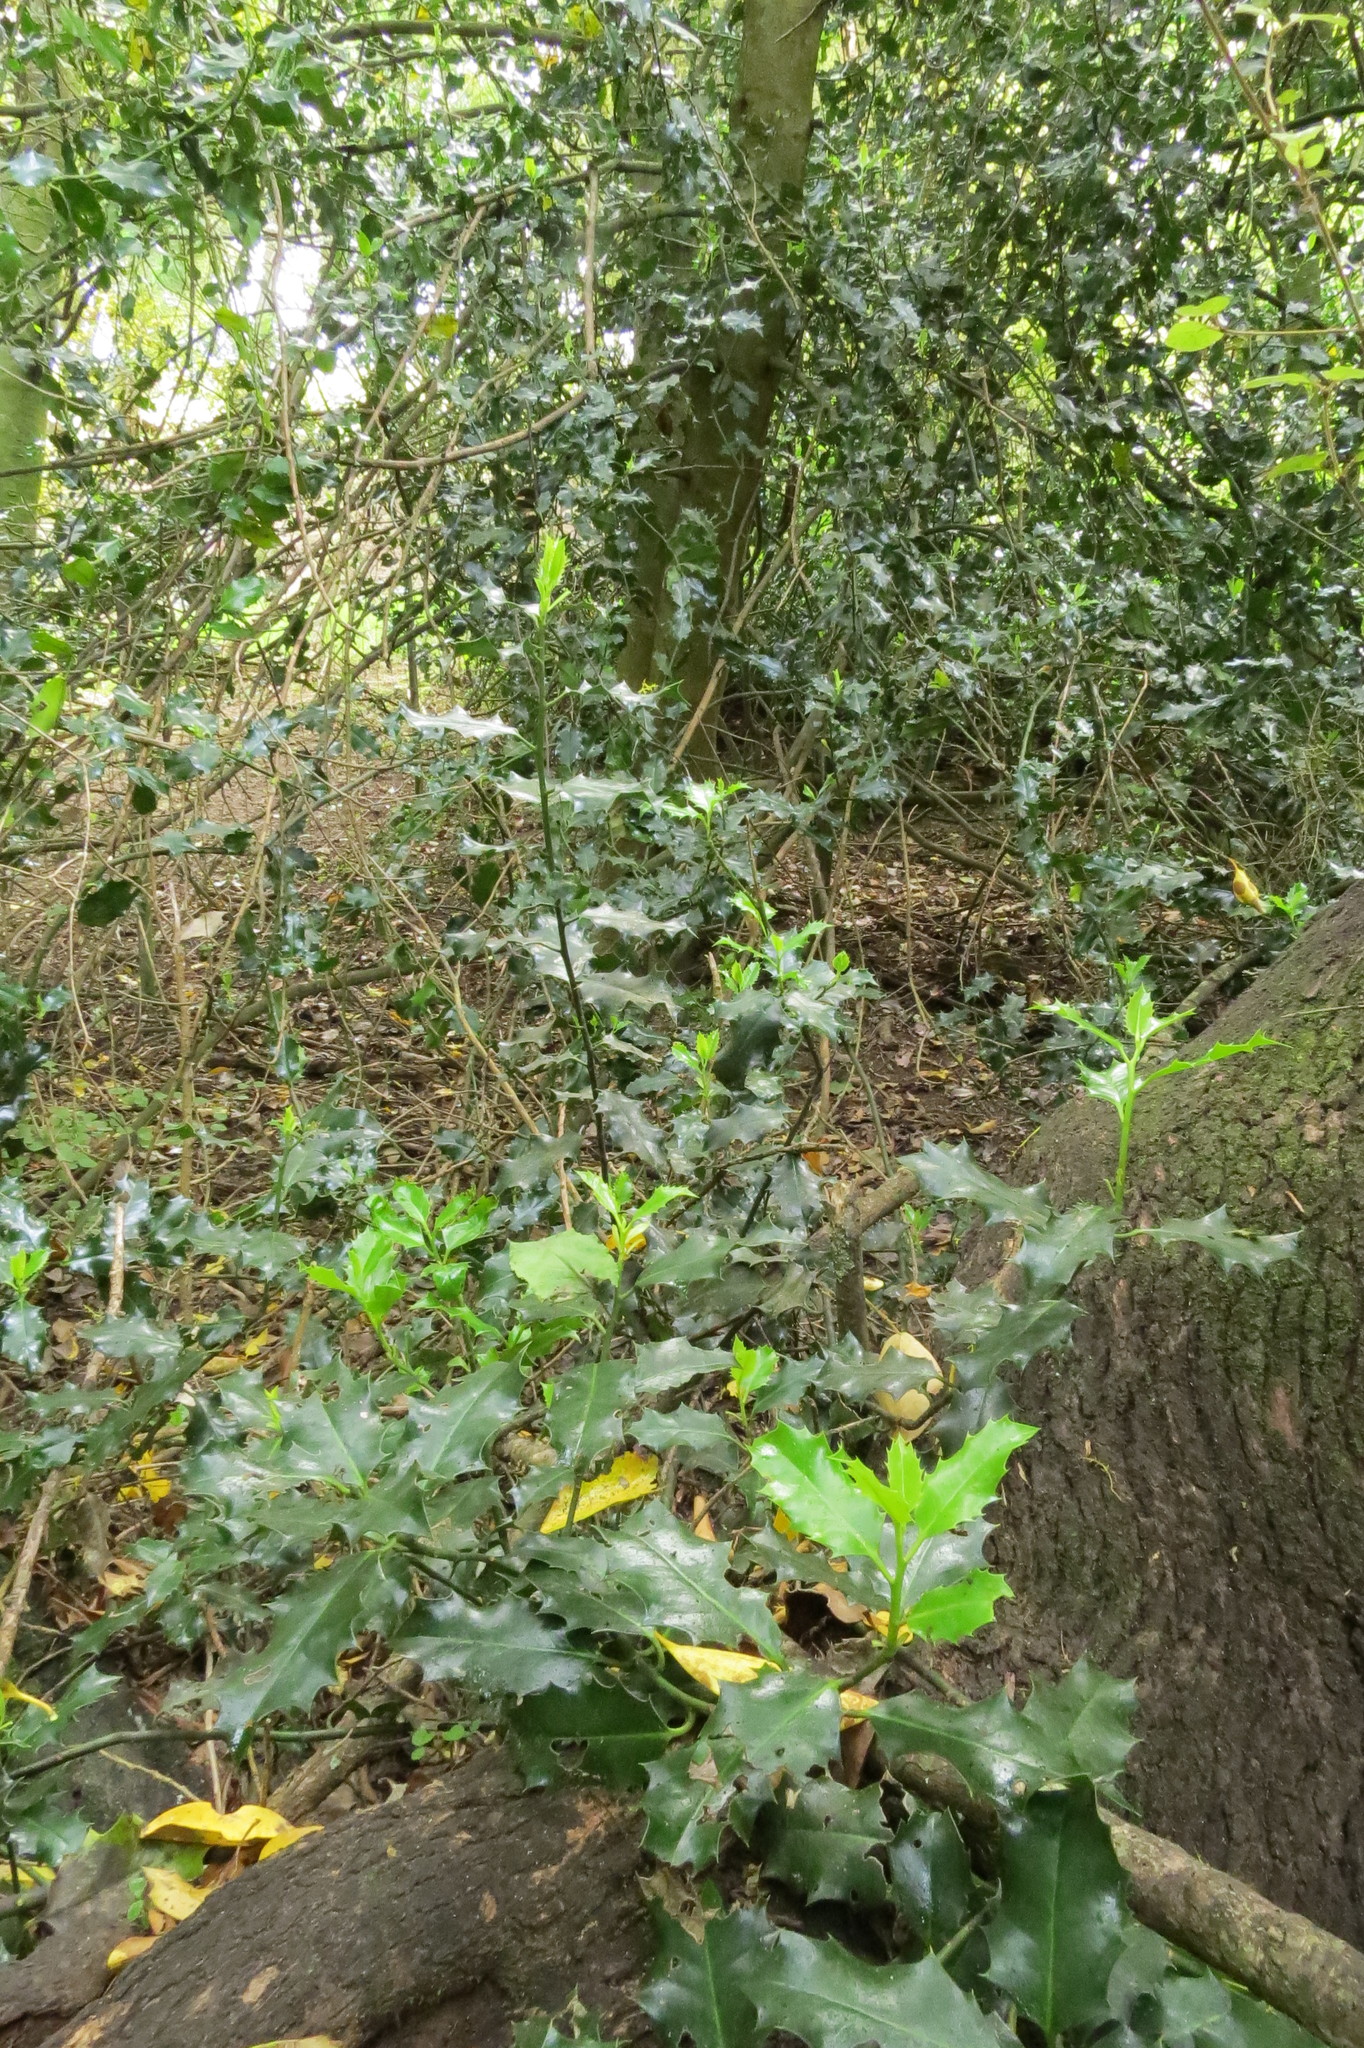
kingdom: Plantae
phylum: Tracheophyta
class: Magnoliopsida
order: Aquifoliales
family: Aquifoliaceae
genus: Ilex
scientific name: Ilex aquifolium
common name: English holly
